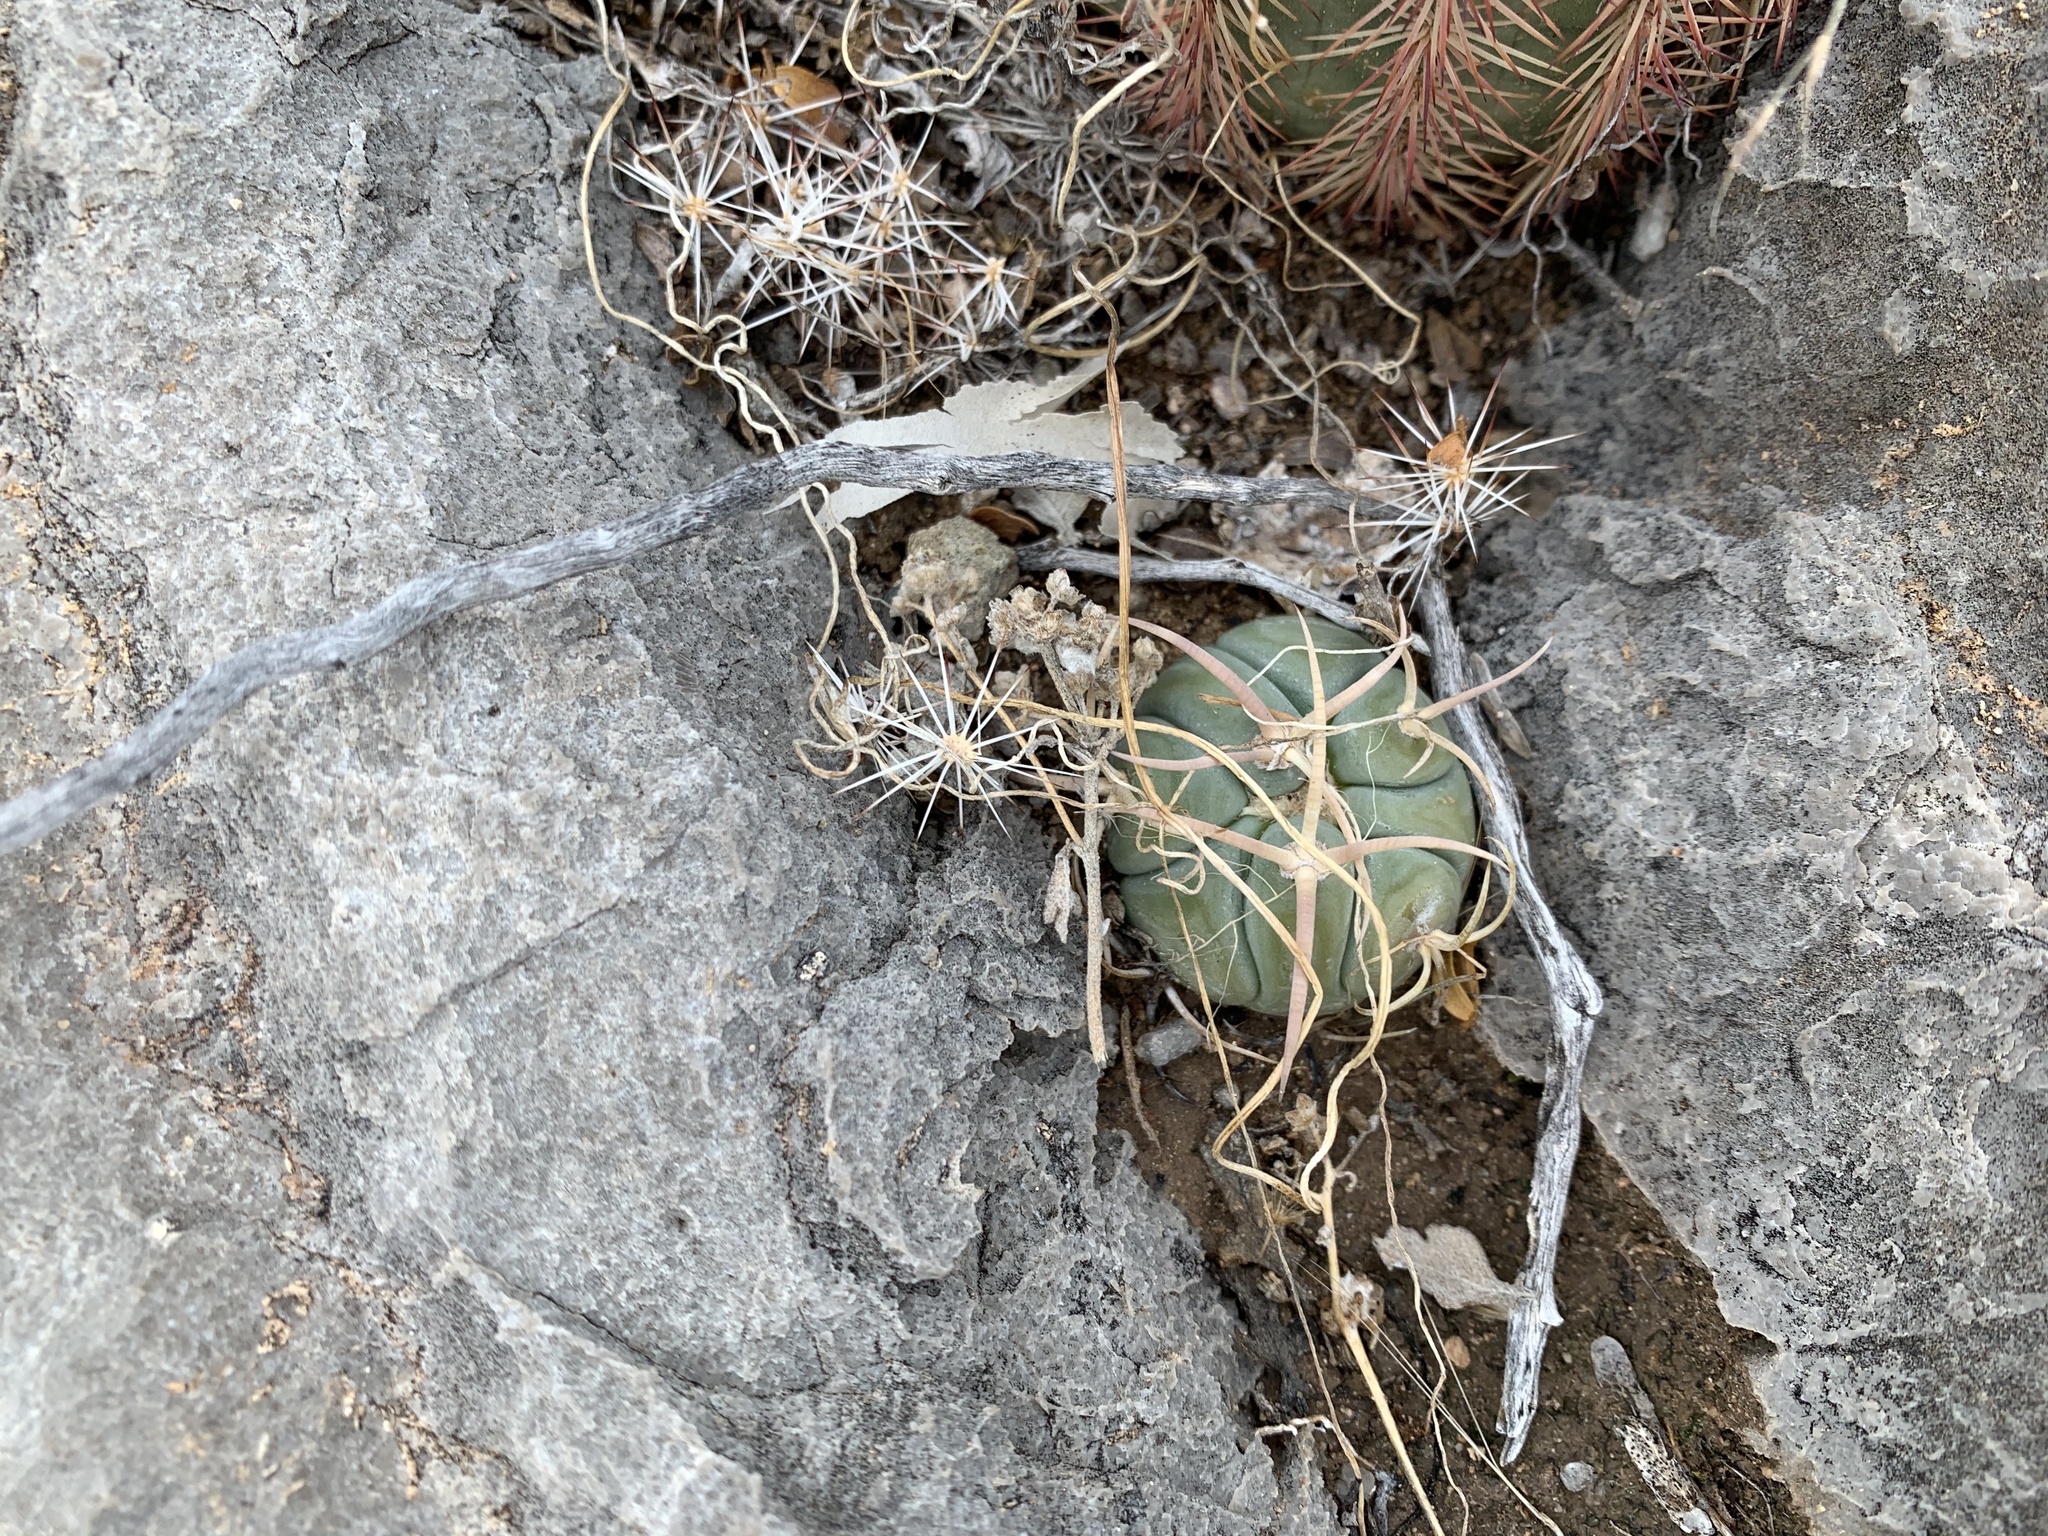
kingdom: Plantae
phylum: Tracheophyta
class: Magnoliopsida
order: Caryophyllales
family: Cactaceae
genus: Echinocactus
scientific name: Echinocactus horizonthalonius
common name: Devilshead
